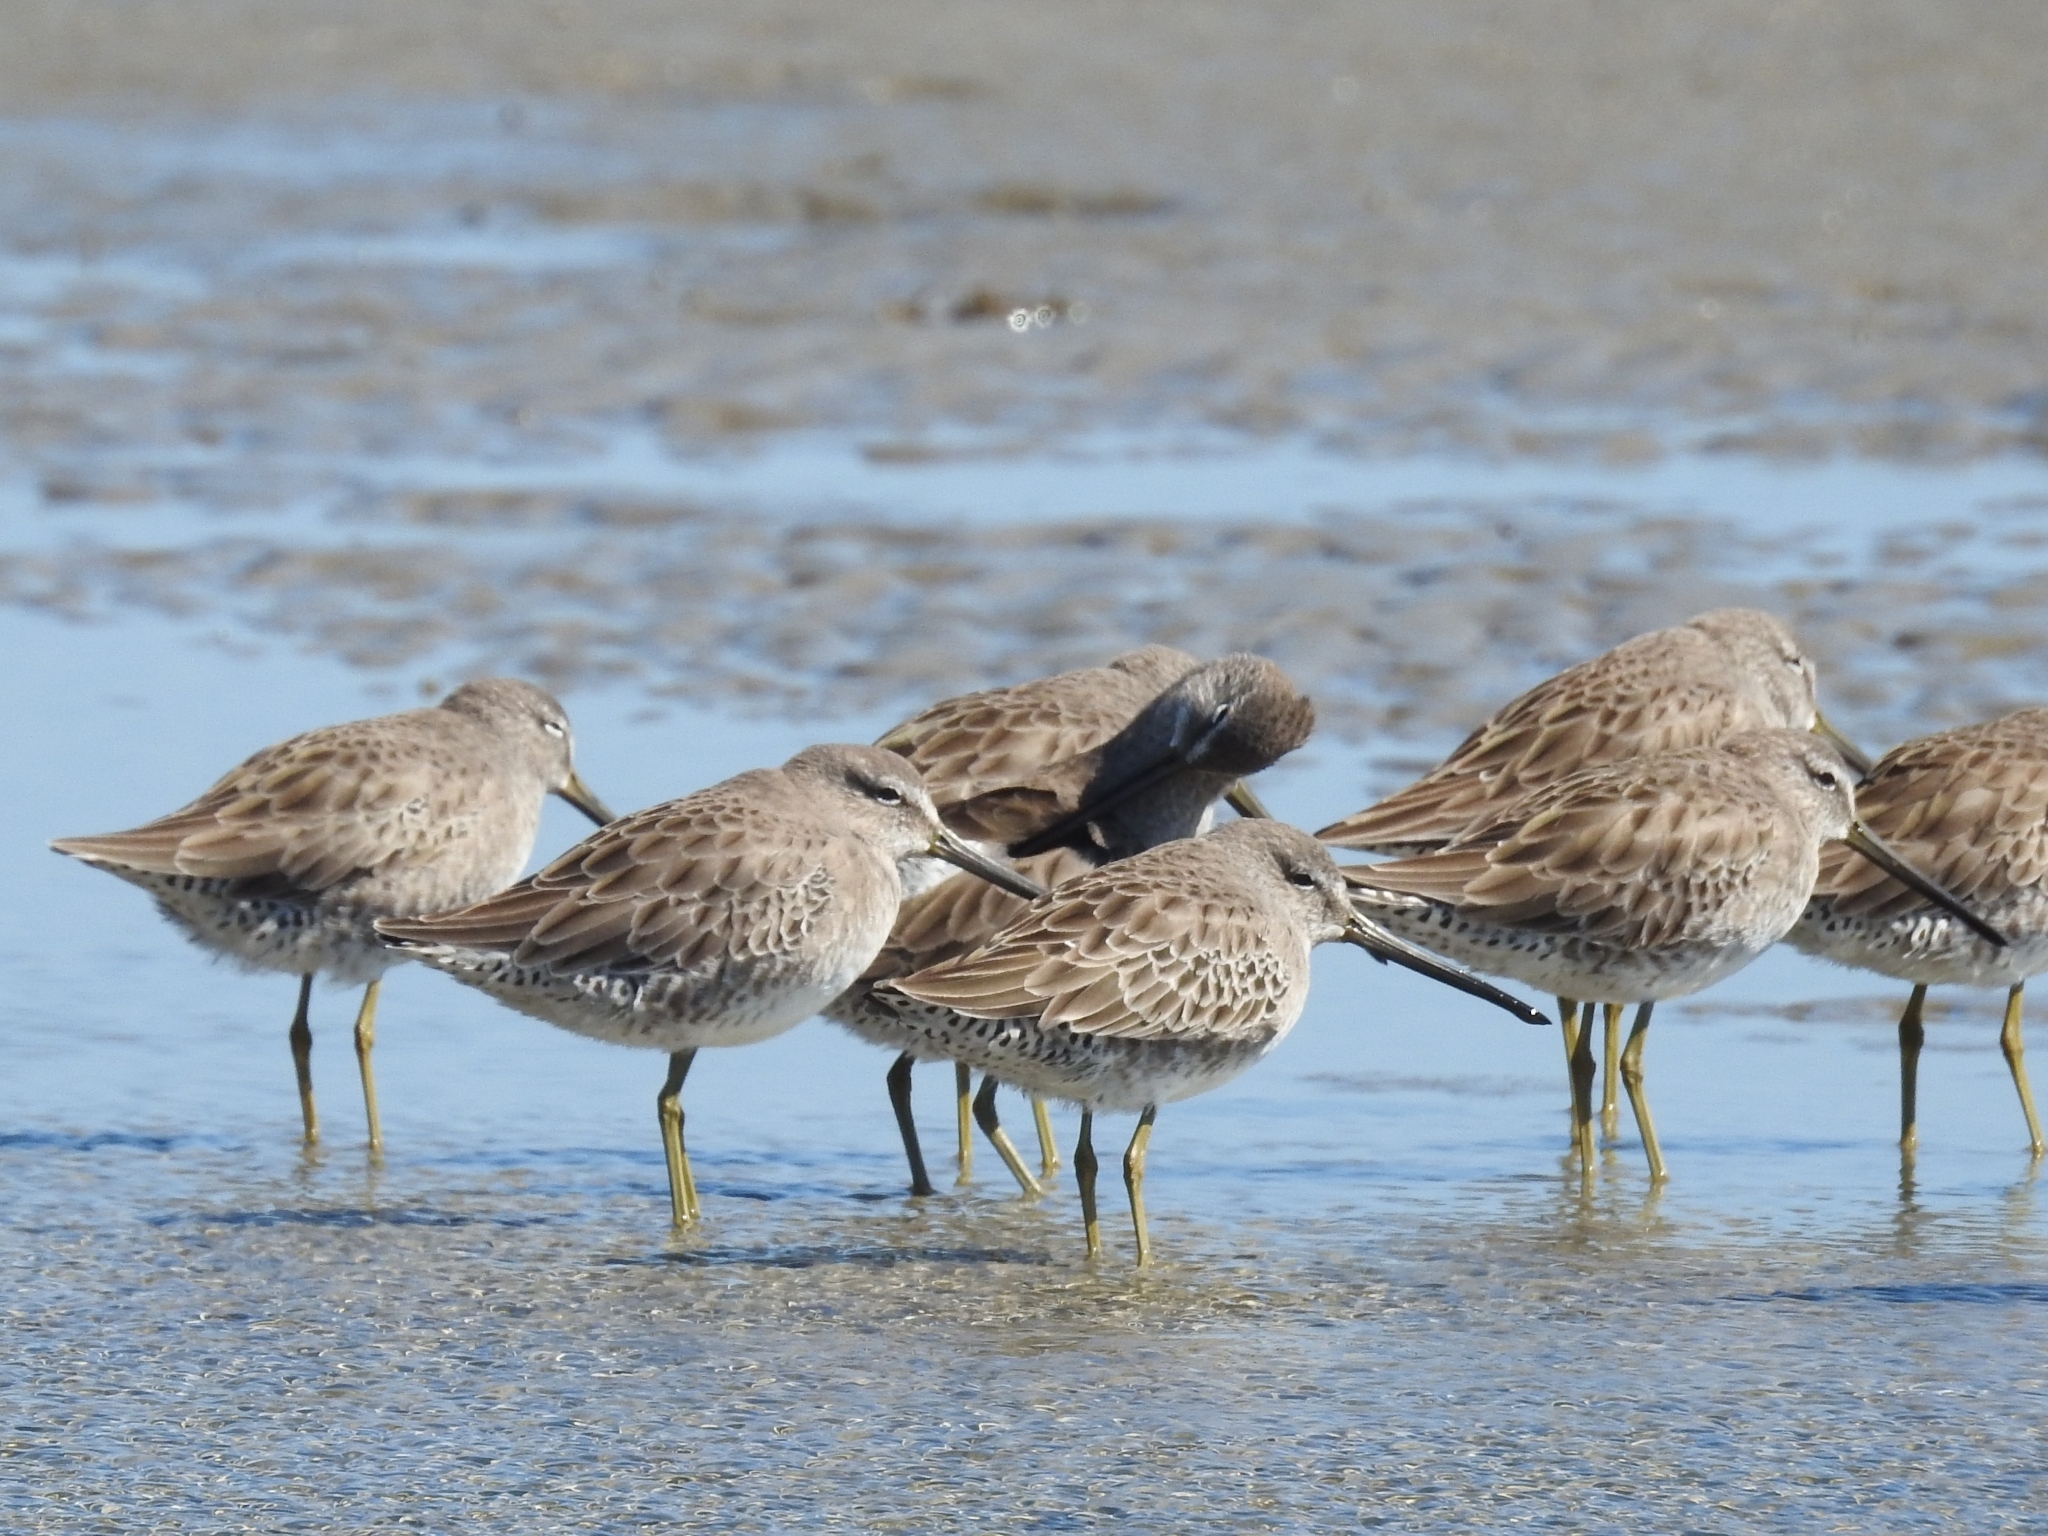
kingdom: Animalia
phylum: Chordata
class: Aves
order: Charadriiformes
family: Scolopacidae
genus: Limnodromus
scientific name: Limnodromus scolopaceus
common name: Long-billed dowitcher
